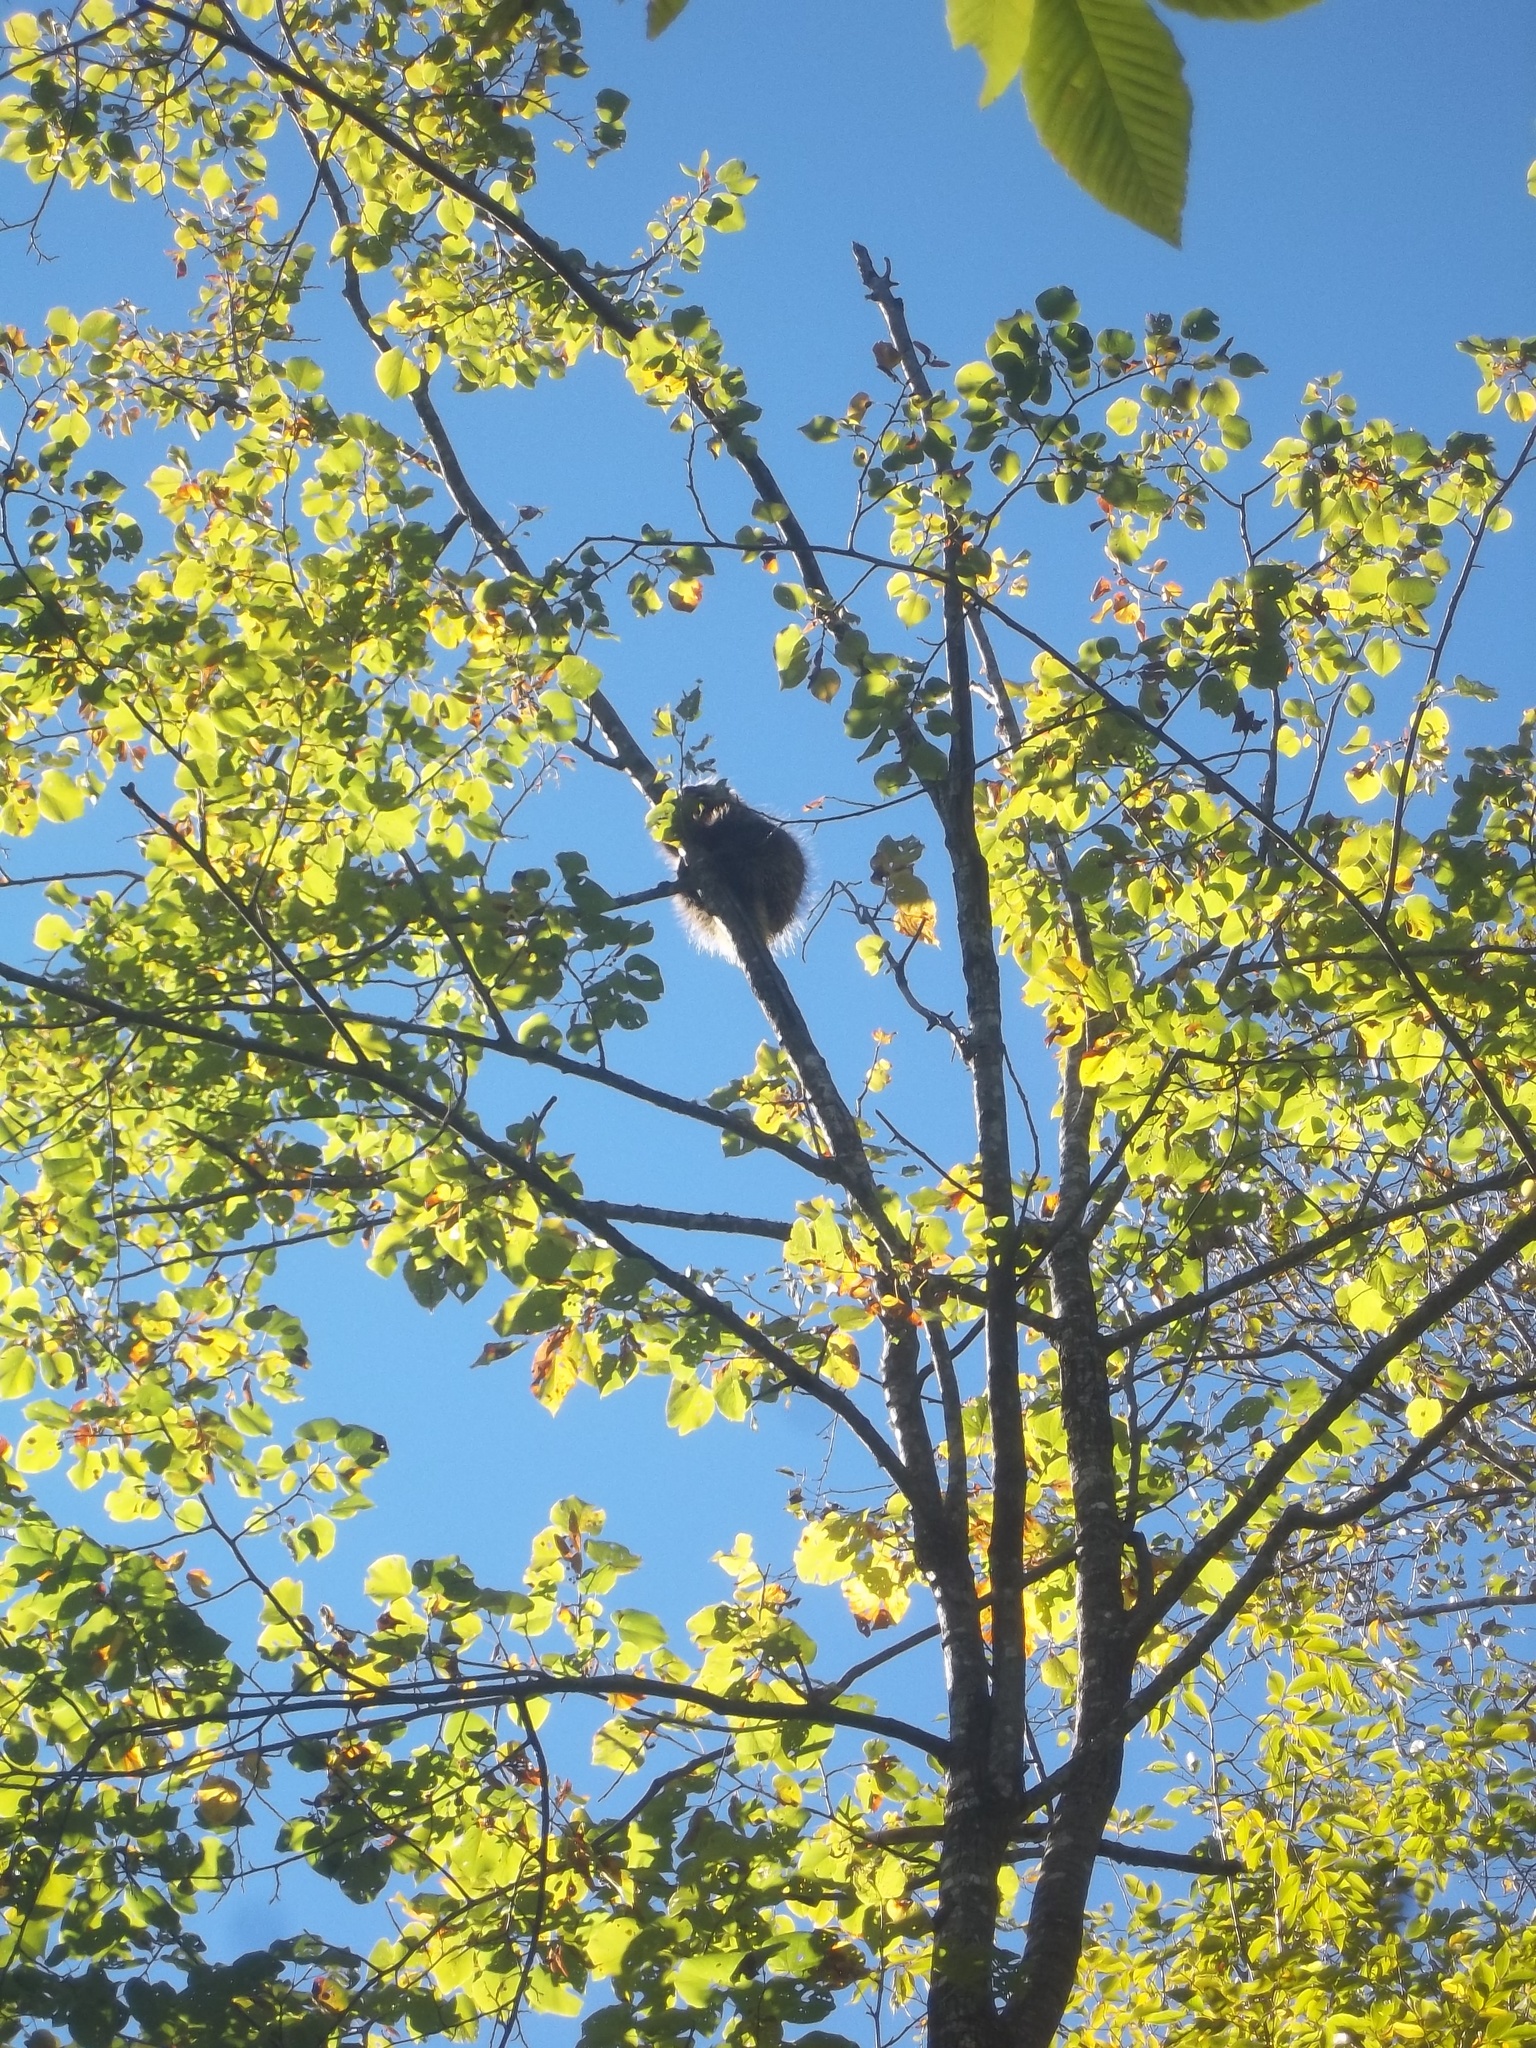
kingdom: Animalia
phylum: Chordata
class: Mammalia
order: Rodentia
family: Erethizontidae
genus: Erethizon
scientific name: Erethizon dorsatus
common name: North american porcupine
